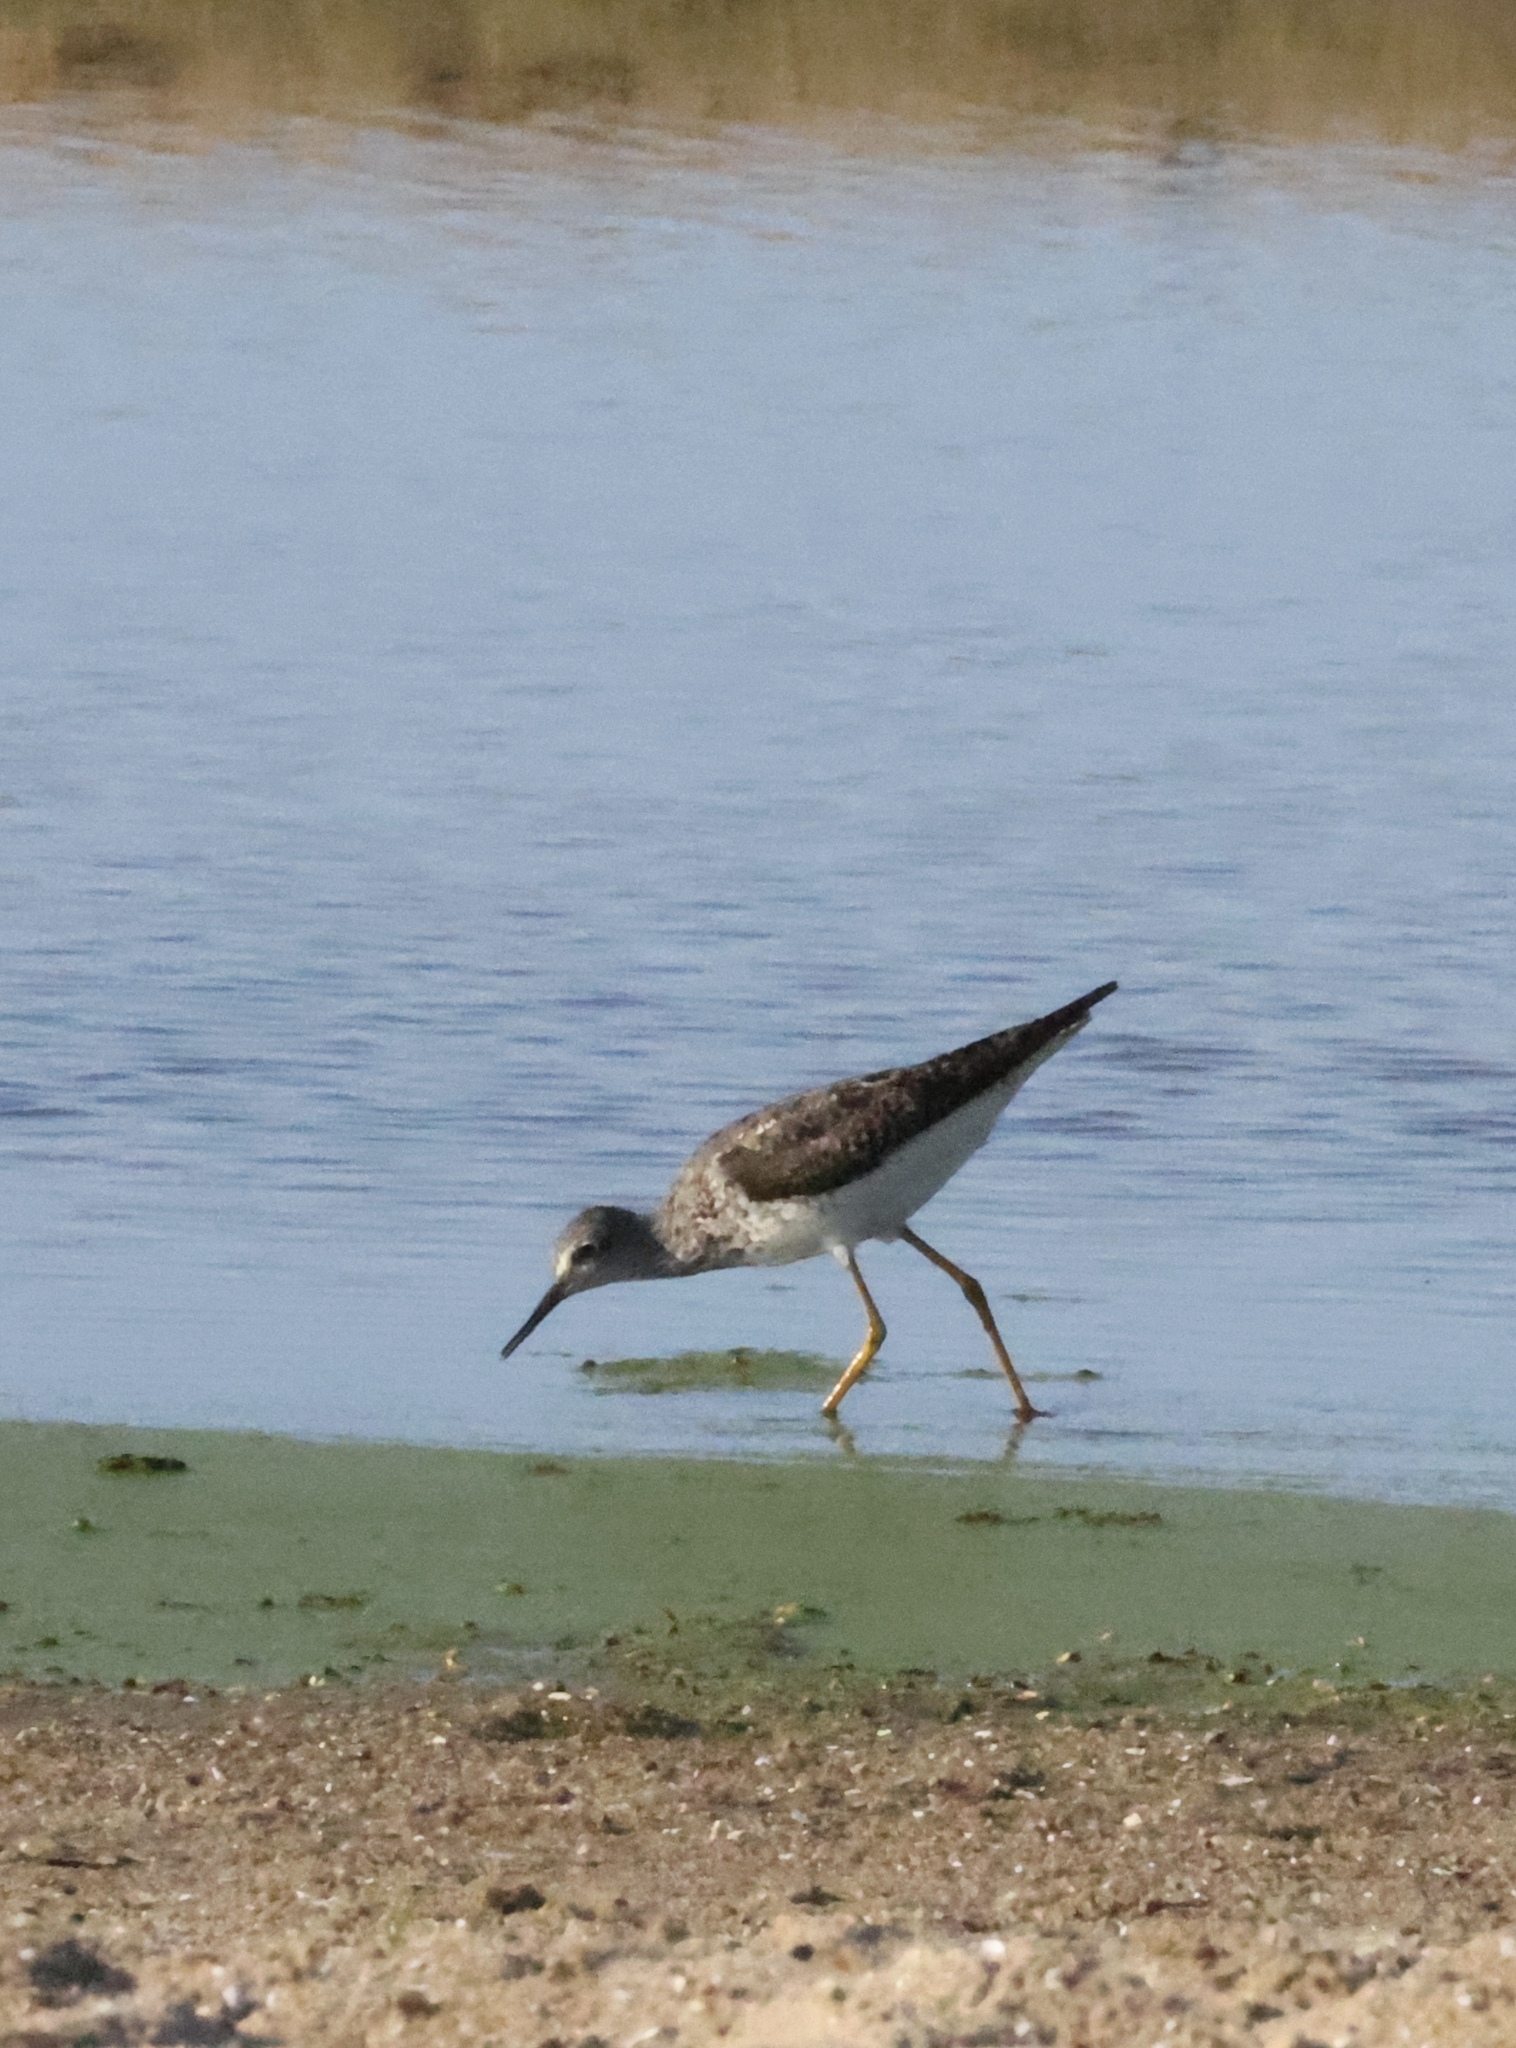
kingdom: Animalia
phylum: Chordata
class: Aves
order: Charadriiformes
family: Scolopacidae
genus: Tringa
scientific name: Tringa flavipes
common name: Lesser yellowlegs
